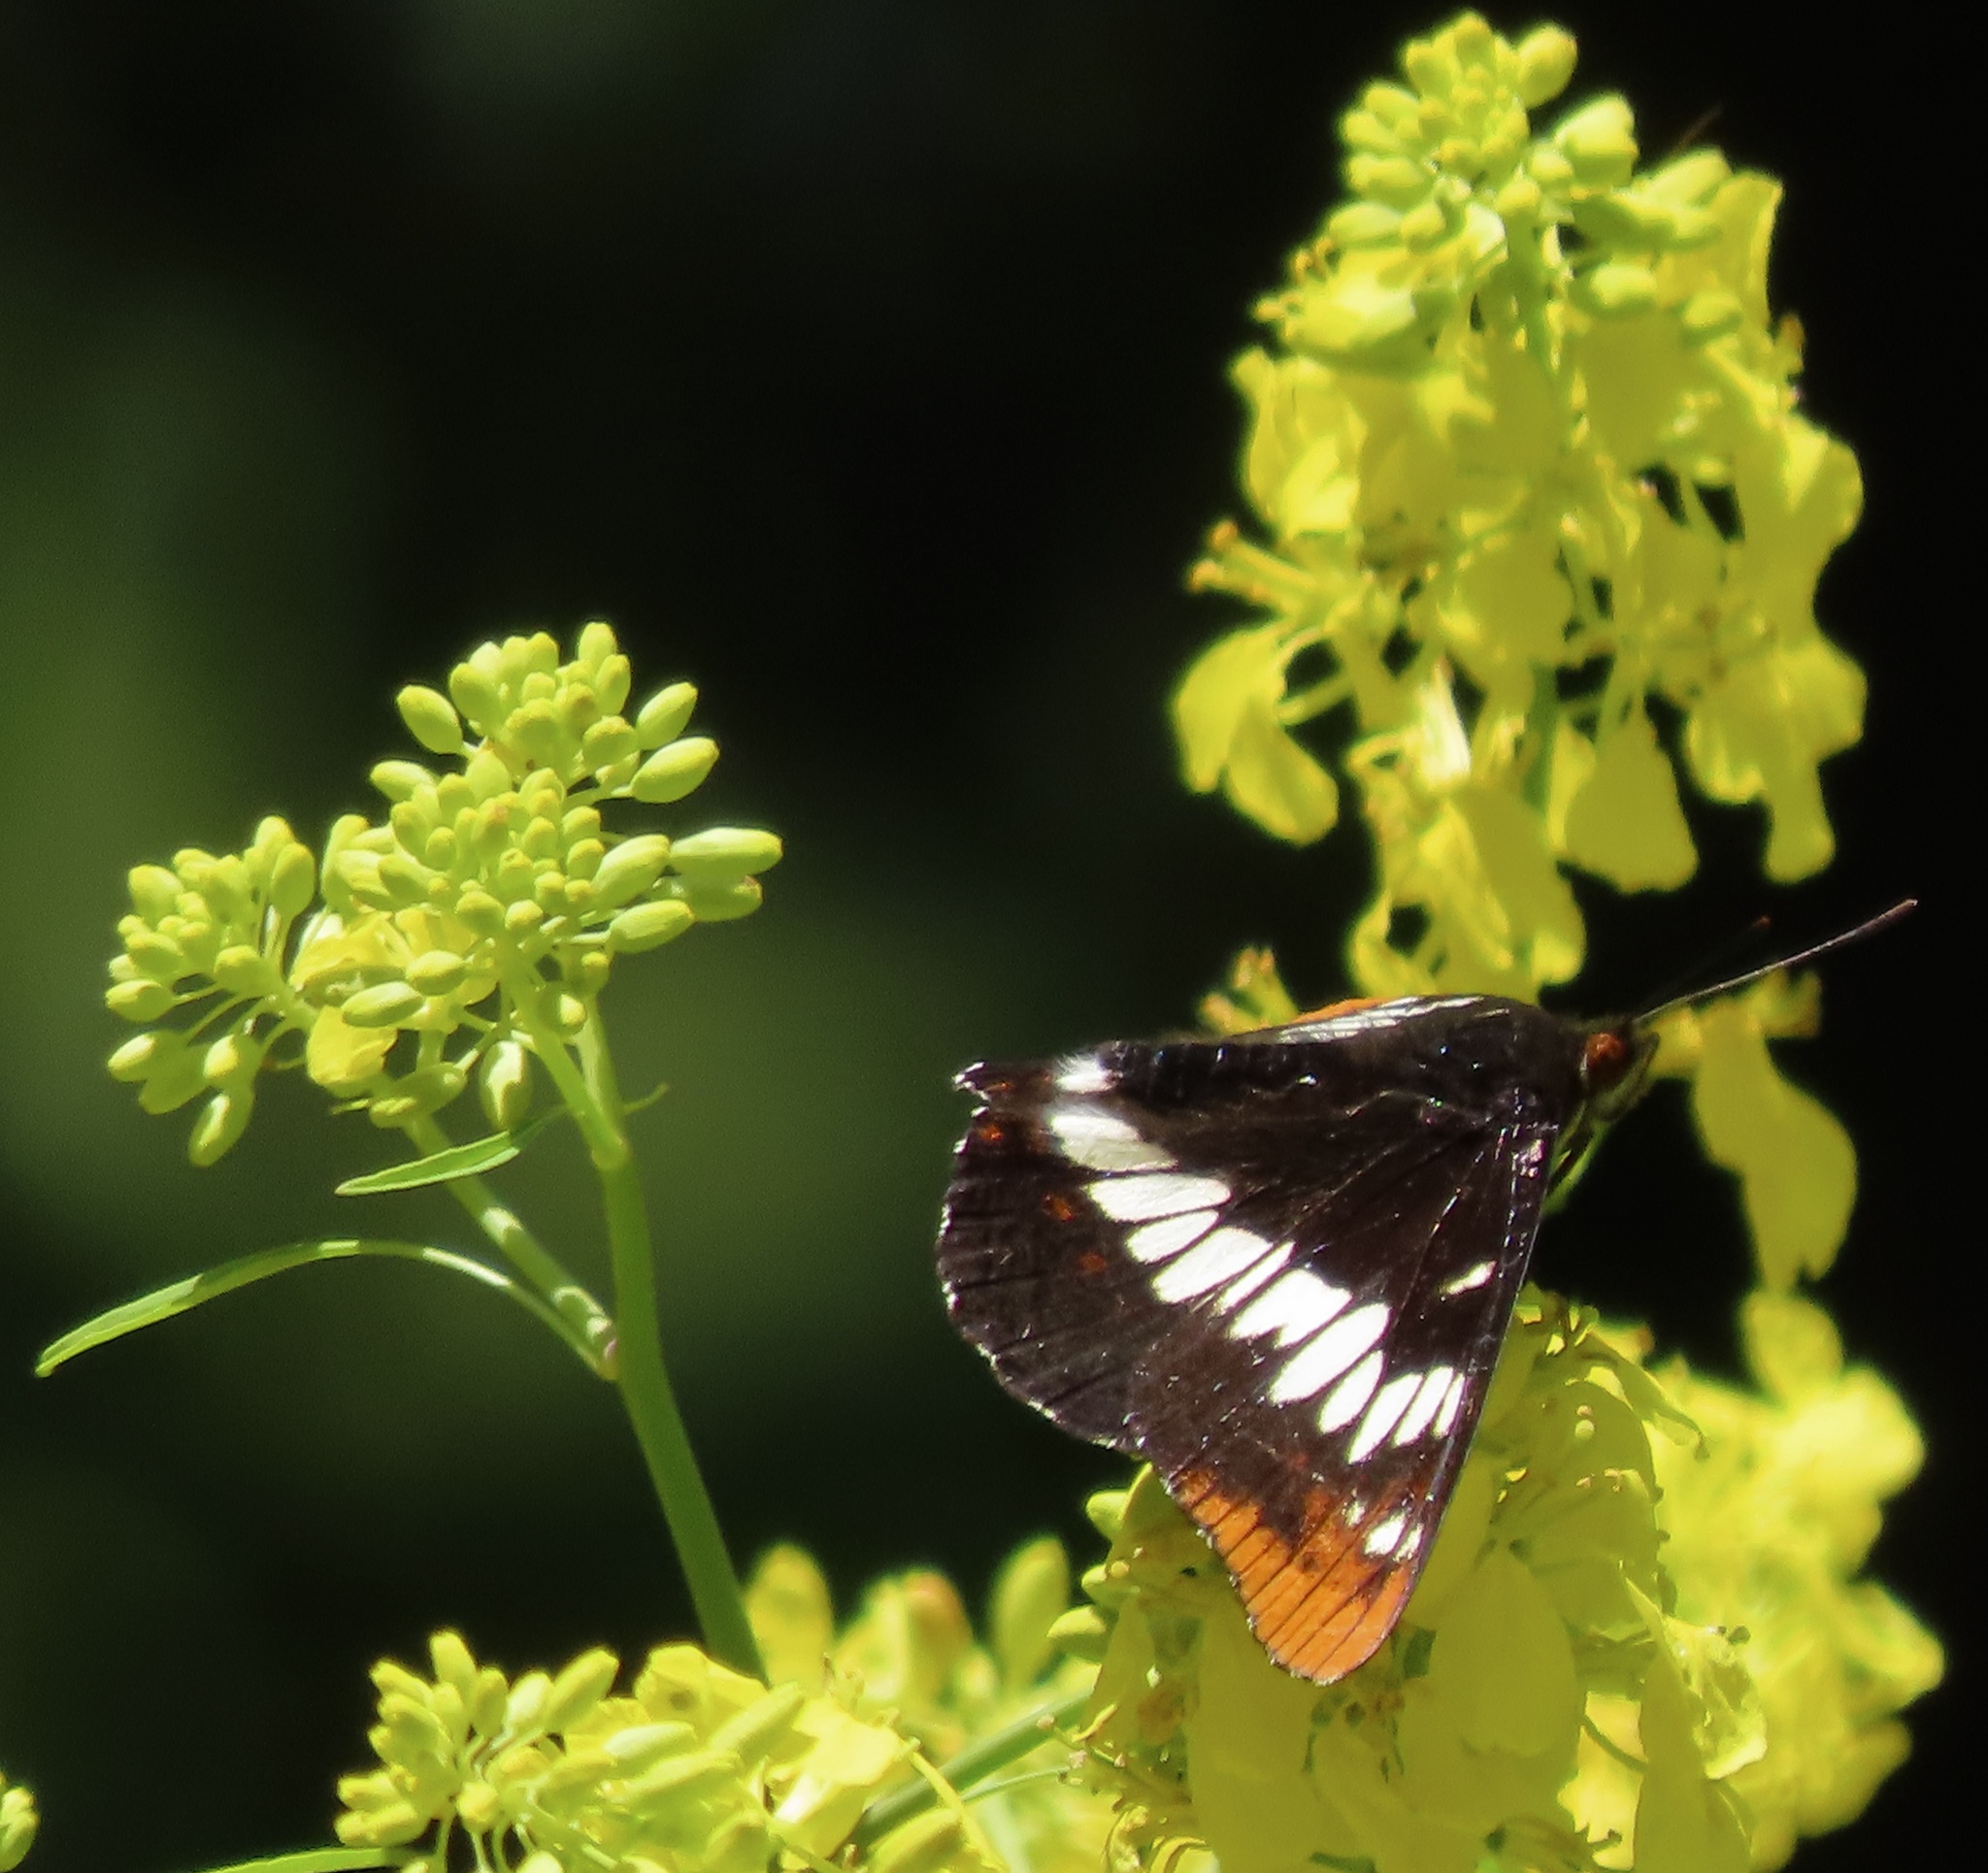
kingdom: Animalia
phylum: Arthropoda
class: Insecta
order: Lepidoptera
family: Nymphalidae
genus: Limenitis
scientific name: Limenitis lorquini
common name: Lorquin's admiral
